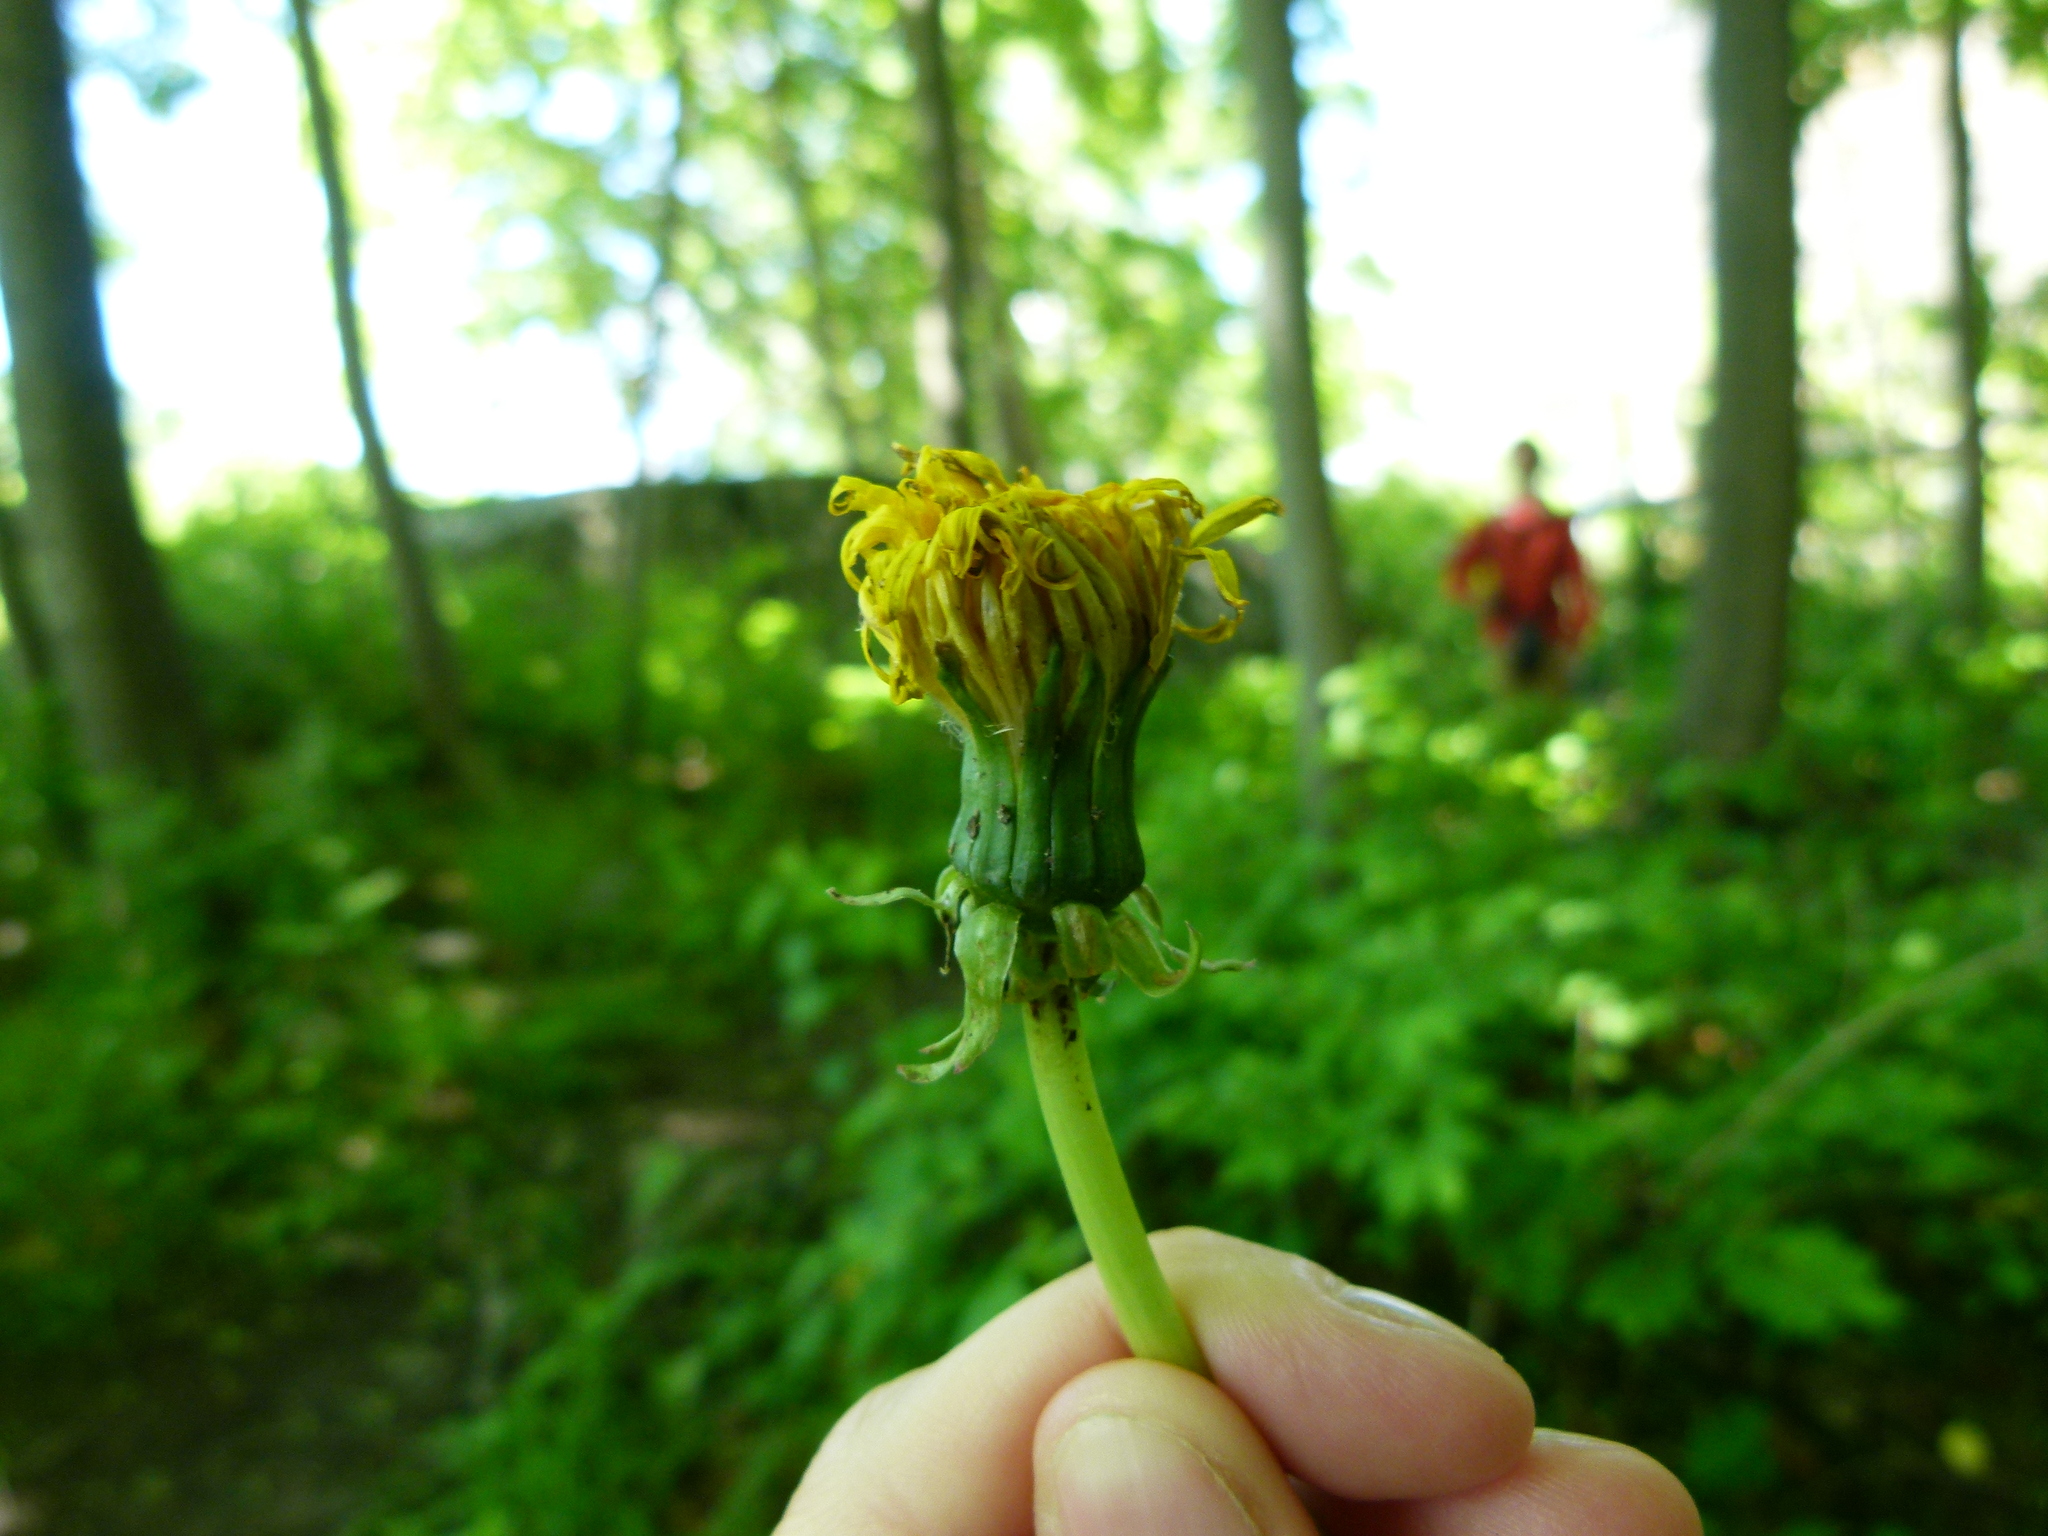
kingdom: Plantae
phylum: Tracheophyta
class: Magnoliopsida
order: Asterales
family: Asteraceae
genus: Taraxacum
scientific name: Taraxacum officinale
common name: Common dandelion
